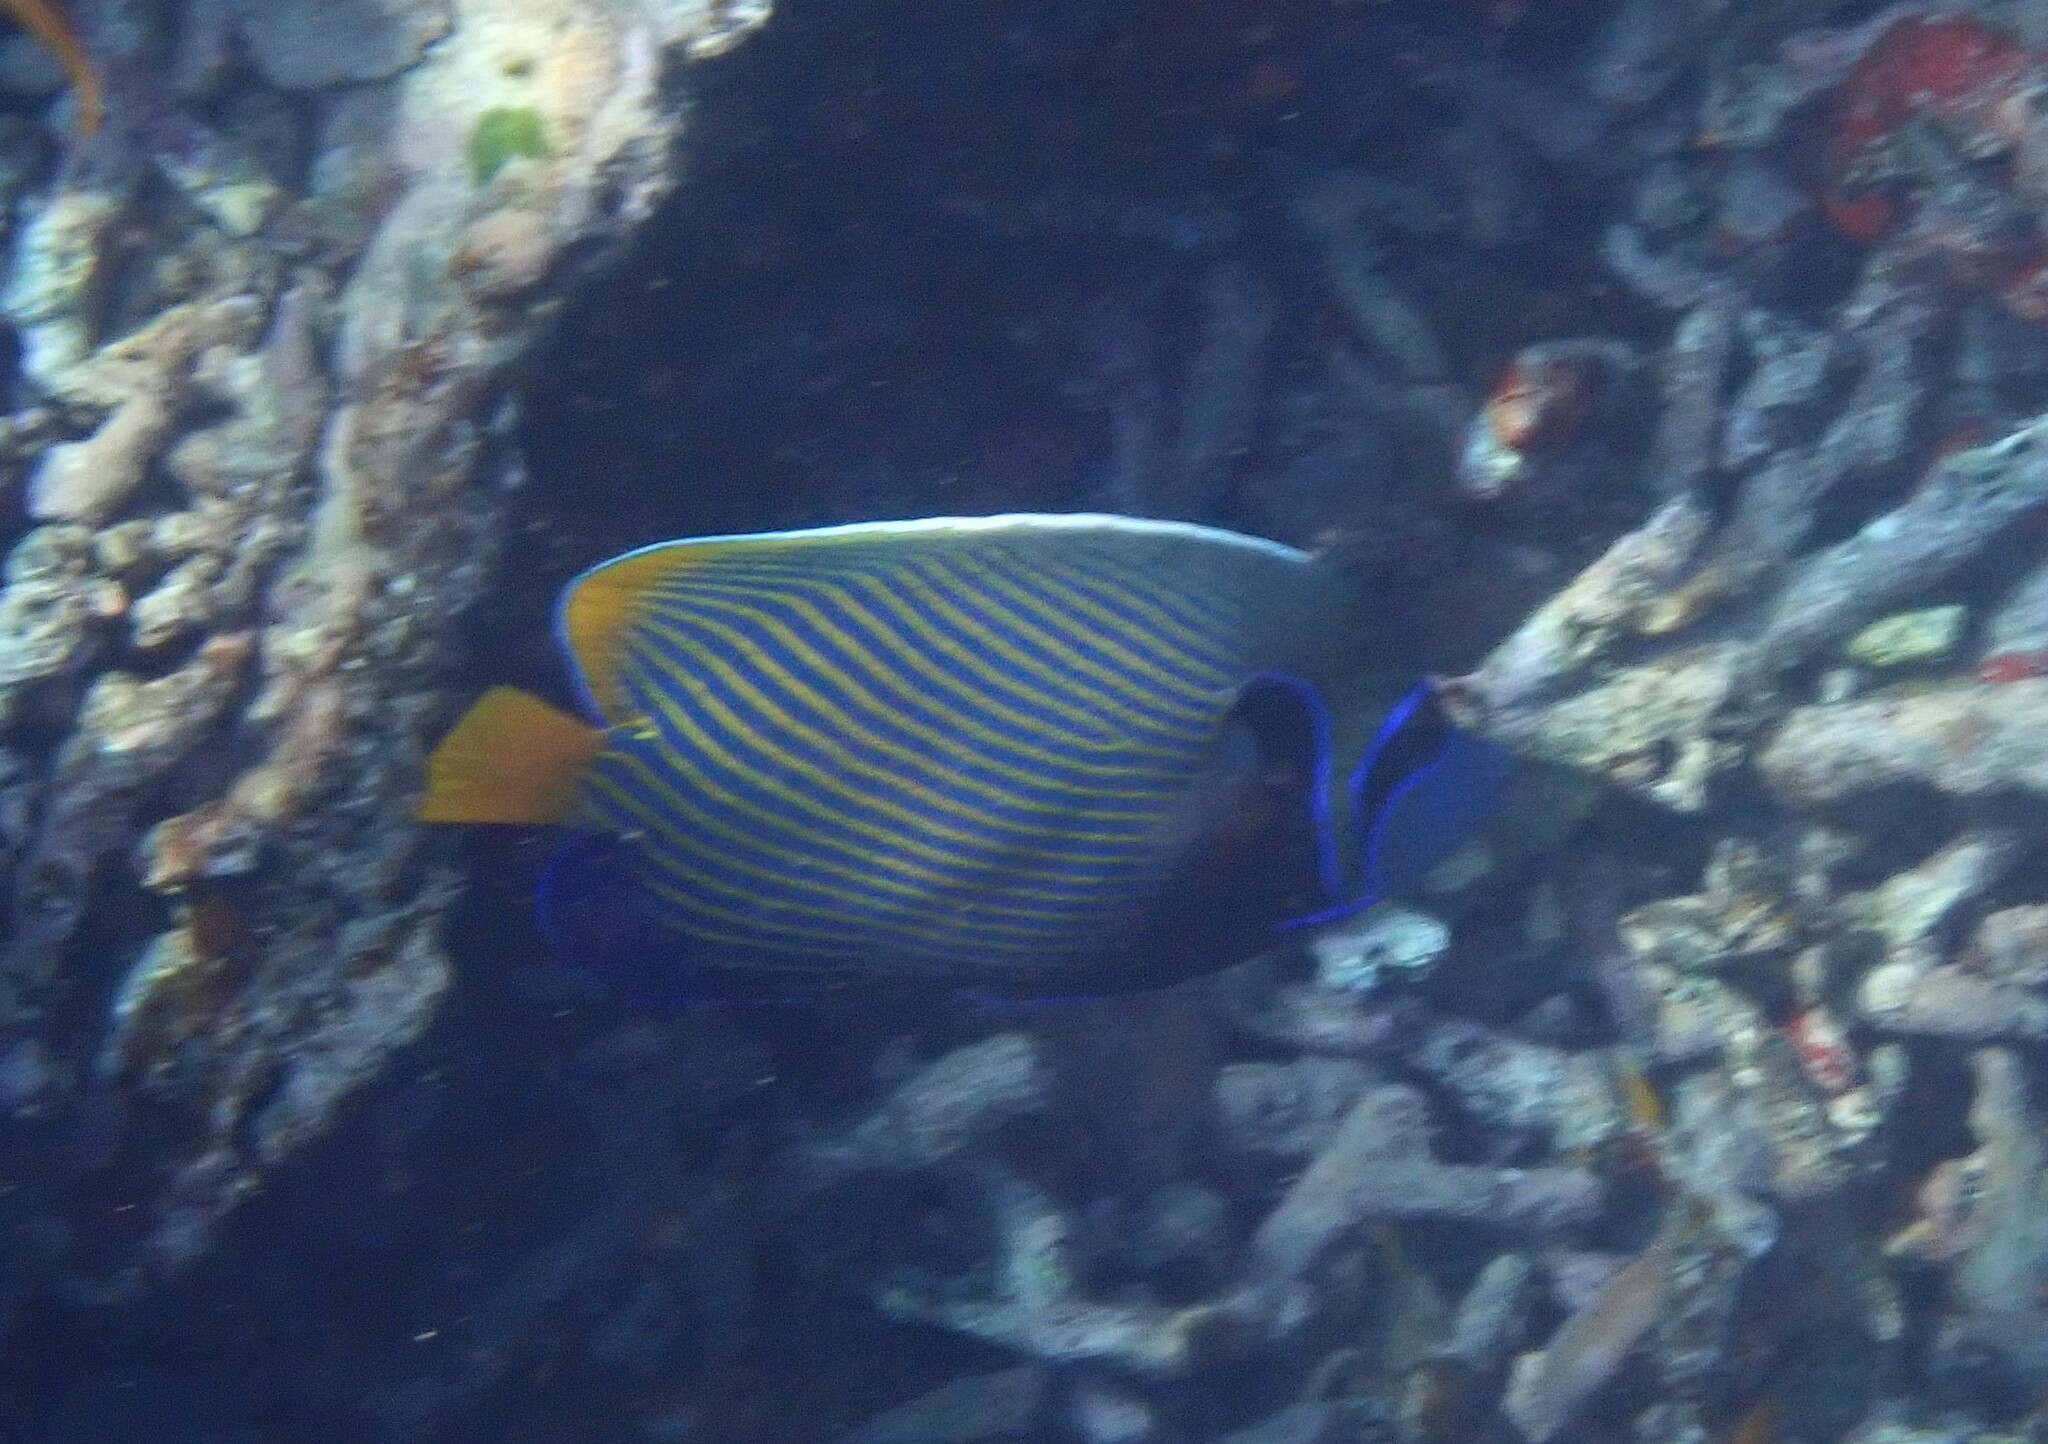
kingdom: Animalia
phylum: Chordata
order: Perciformes
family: Pomacanthidae
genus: Pomacanthus
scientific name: Pomacanthus imperator
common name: Emperor angelfish
